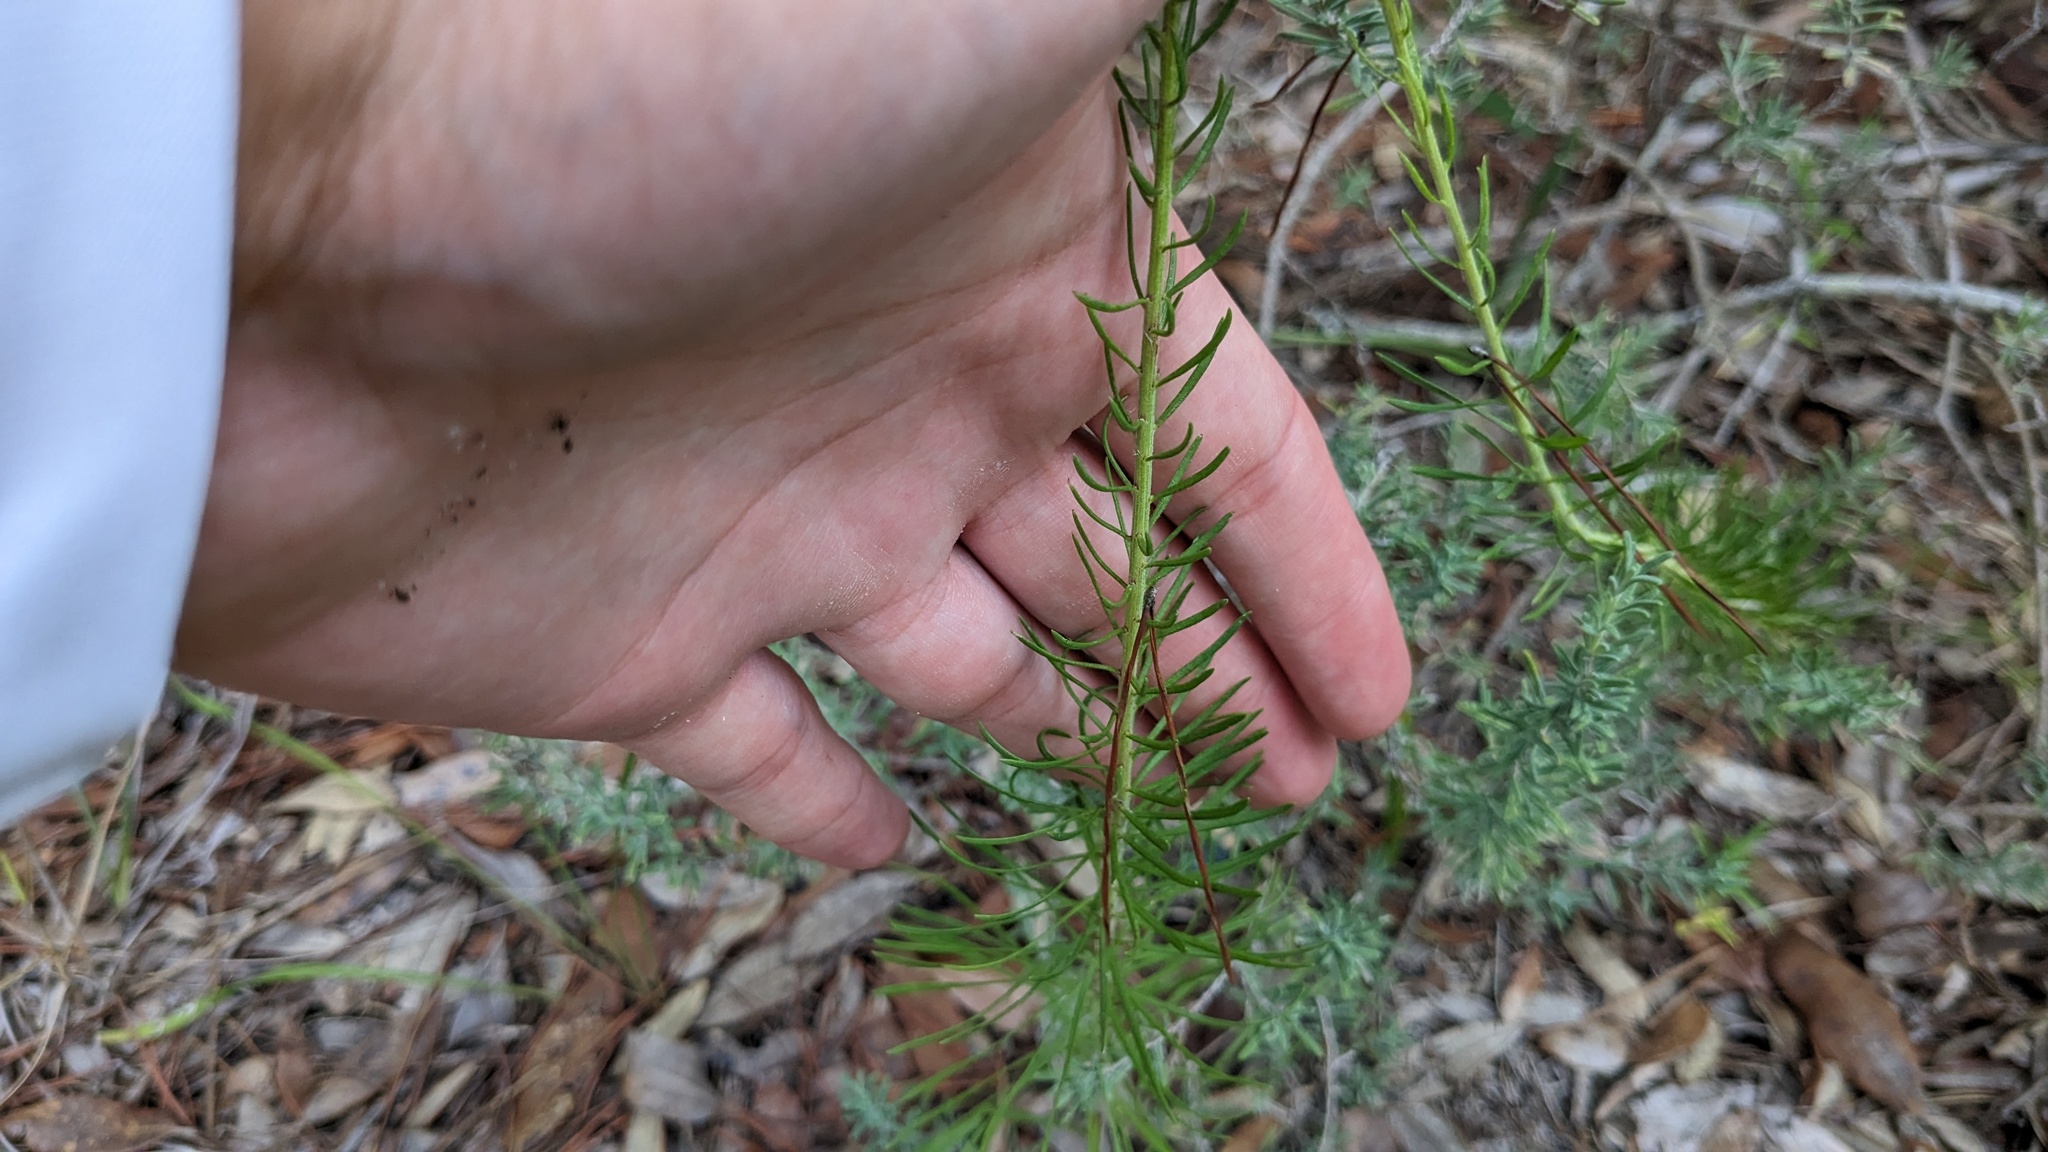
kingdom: Plantae
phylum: Tracheophyta
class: Magnoliopsida
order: Asterales
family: Asteraceae
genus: Liatris
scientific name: Liatris pauciflora
